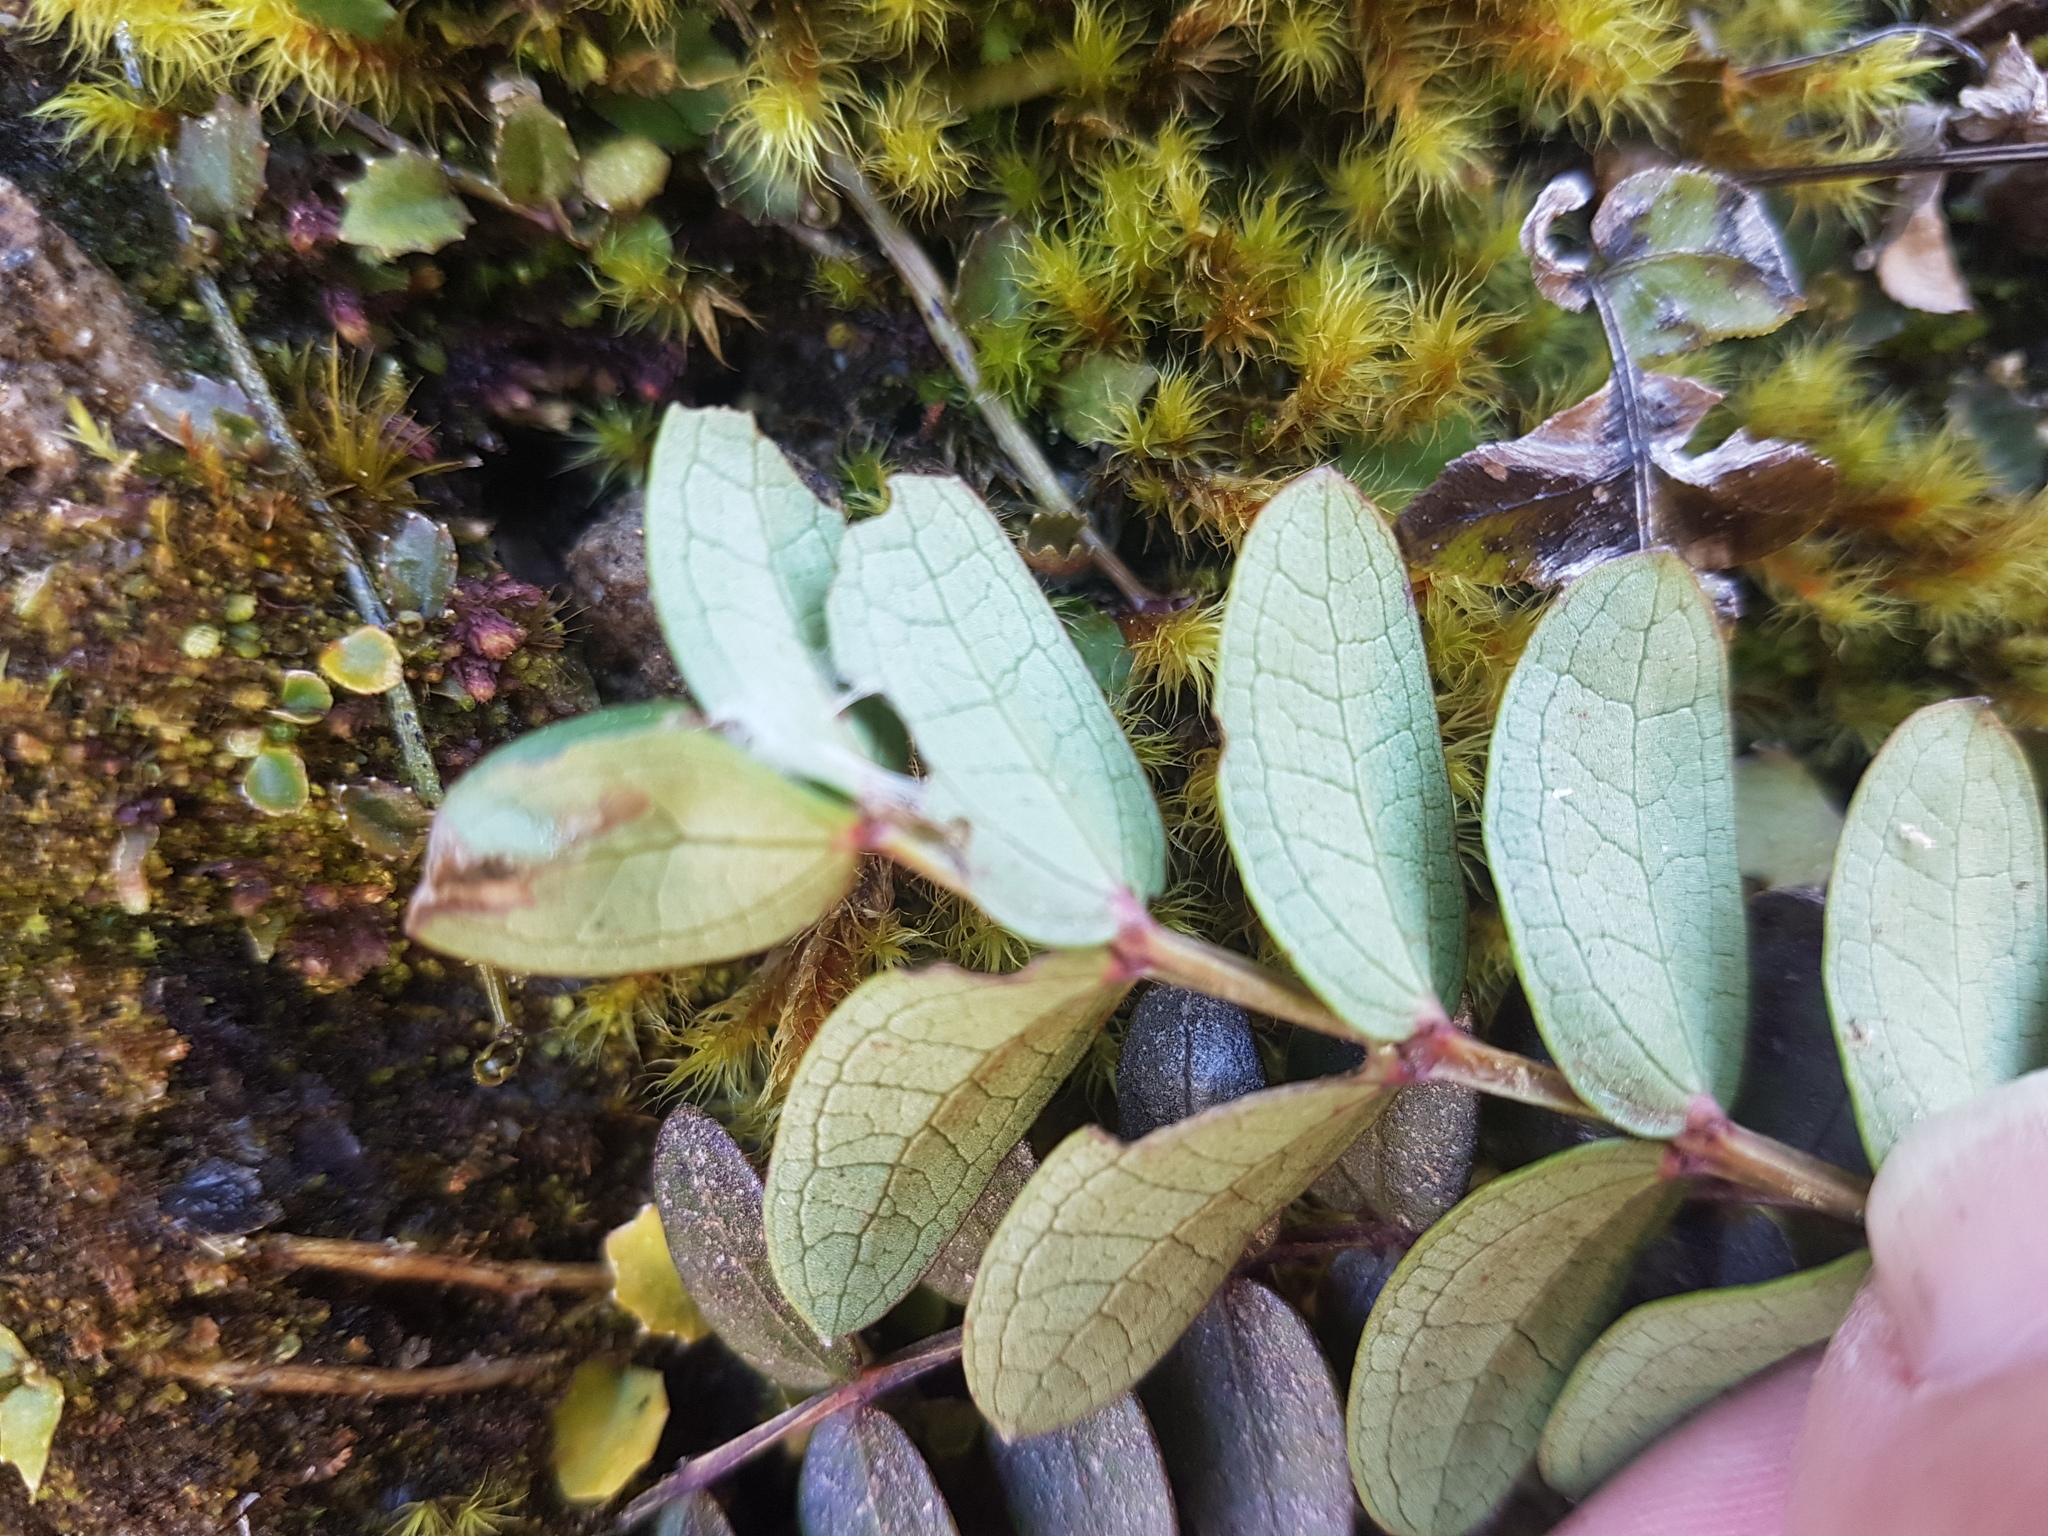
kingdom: Plantae
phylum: Tracheophyta
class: Magnoliopsida
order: Cucurbitales
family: Coriariaceae
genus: Coriaria
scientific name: Coriaria arborea
